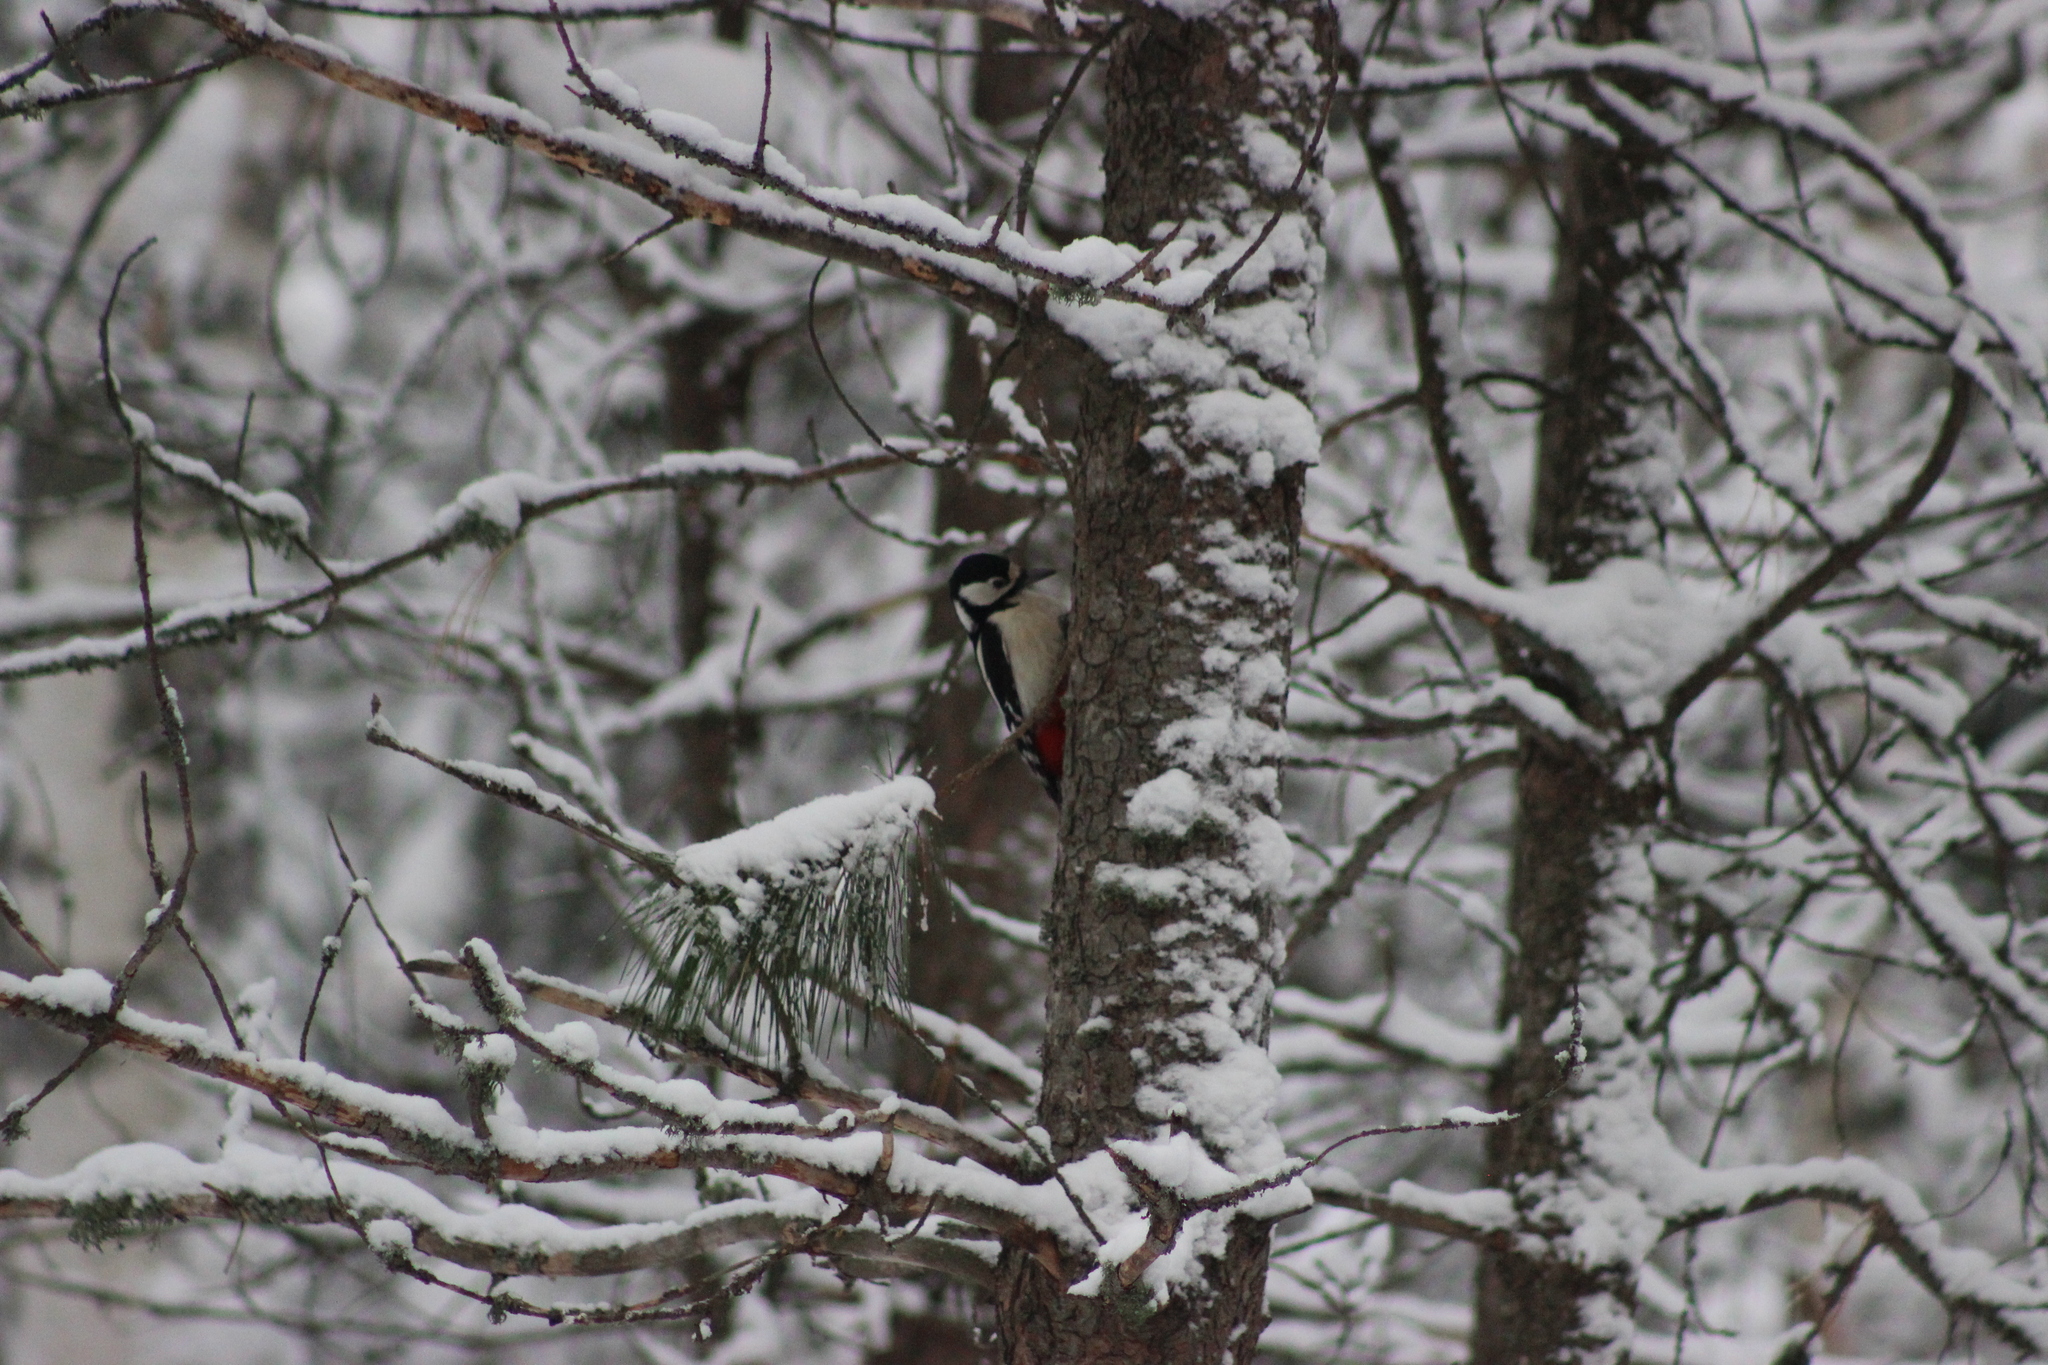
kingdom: Animalia
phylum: Chordata
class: Aves
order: Piciformes
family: Picidae
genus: Dendrocopos
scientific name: Dendrocopos major
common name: Great spotted woodpecker
